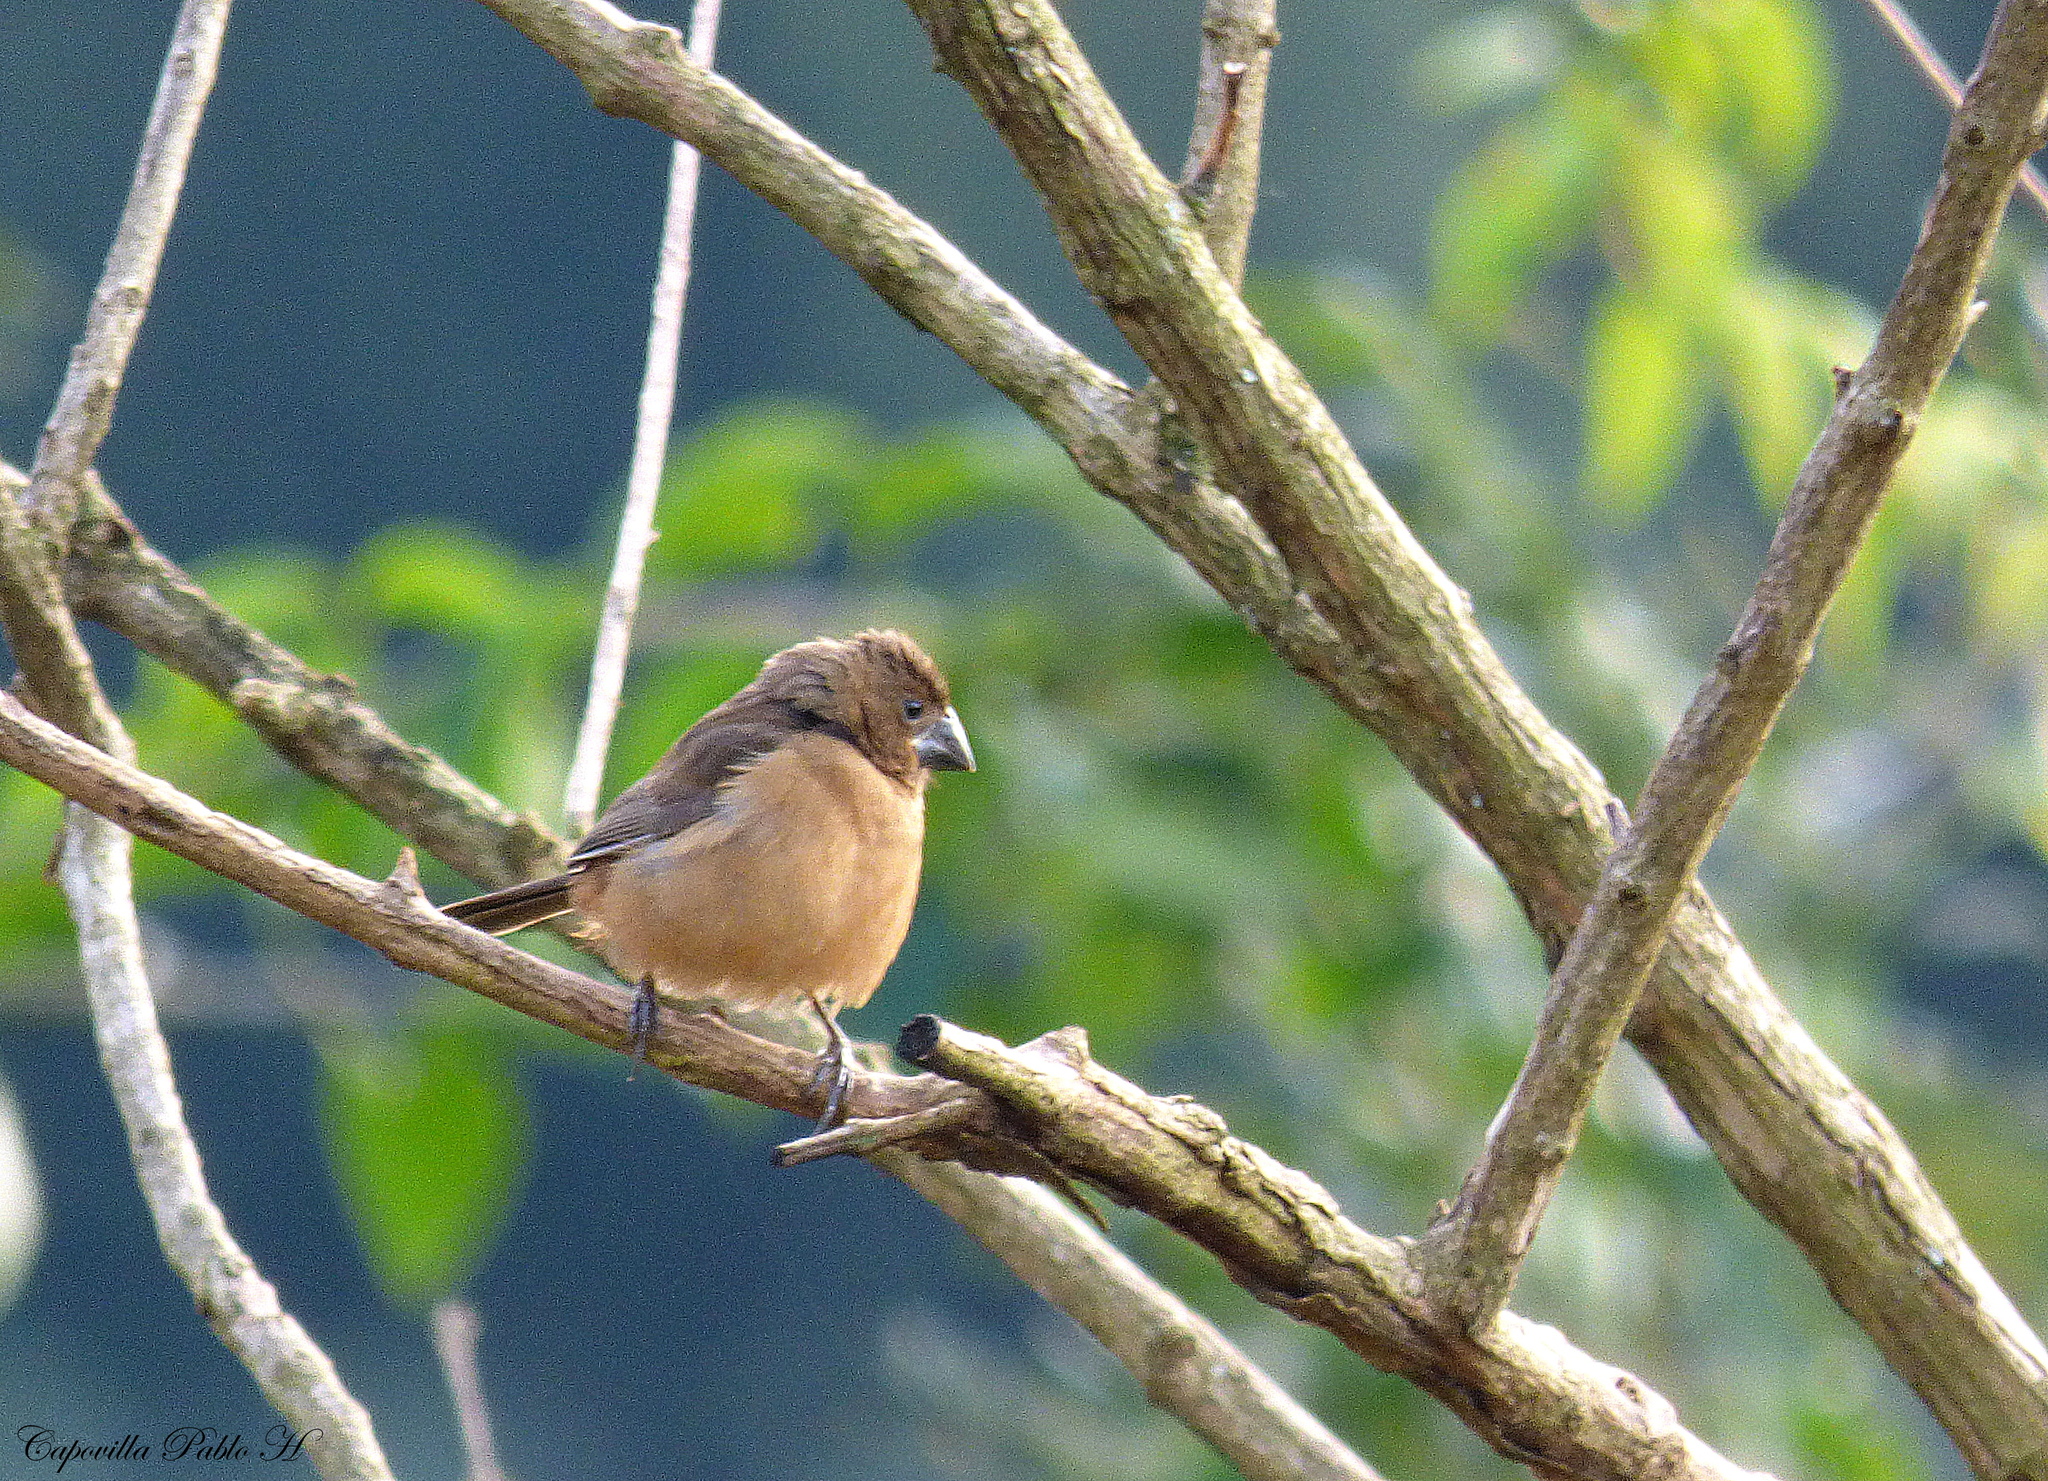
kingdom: Animalia
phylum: Chordata
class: Aves
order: Passeriformes
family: Thraupidae
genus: Sporophila
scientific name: Sporophila angolensis
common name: Chestnut-bellied seed-finch
